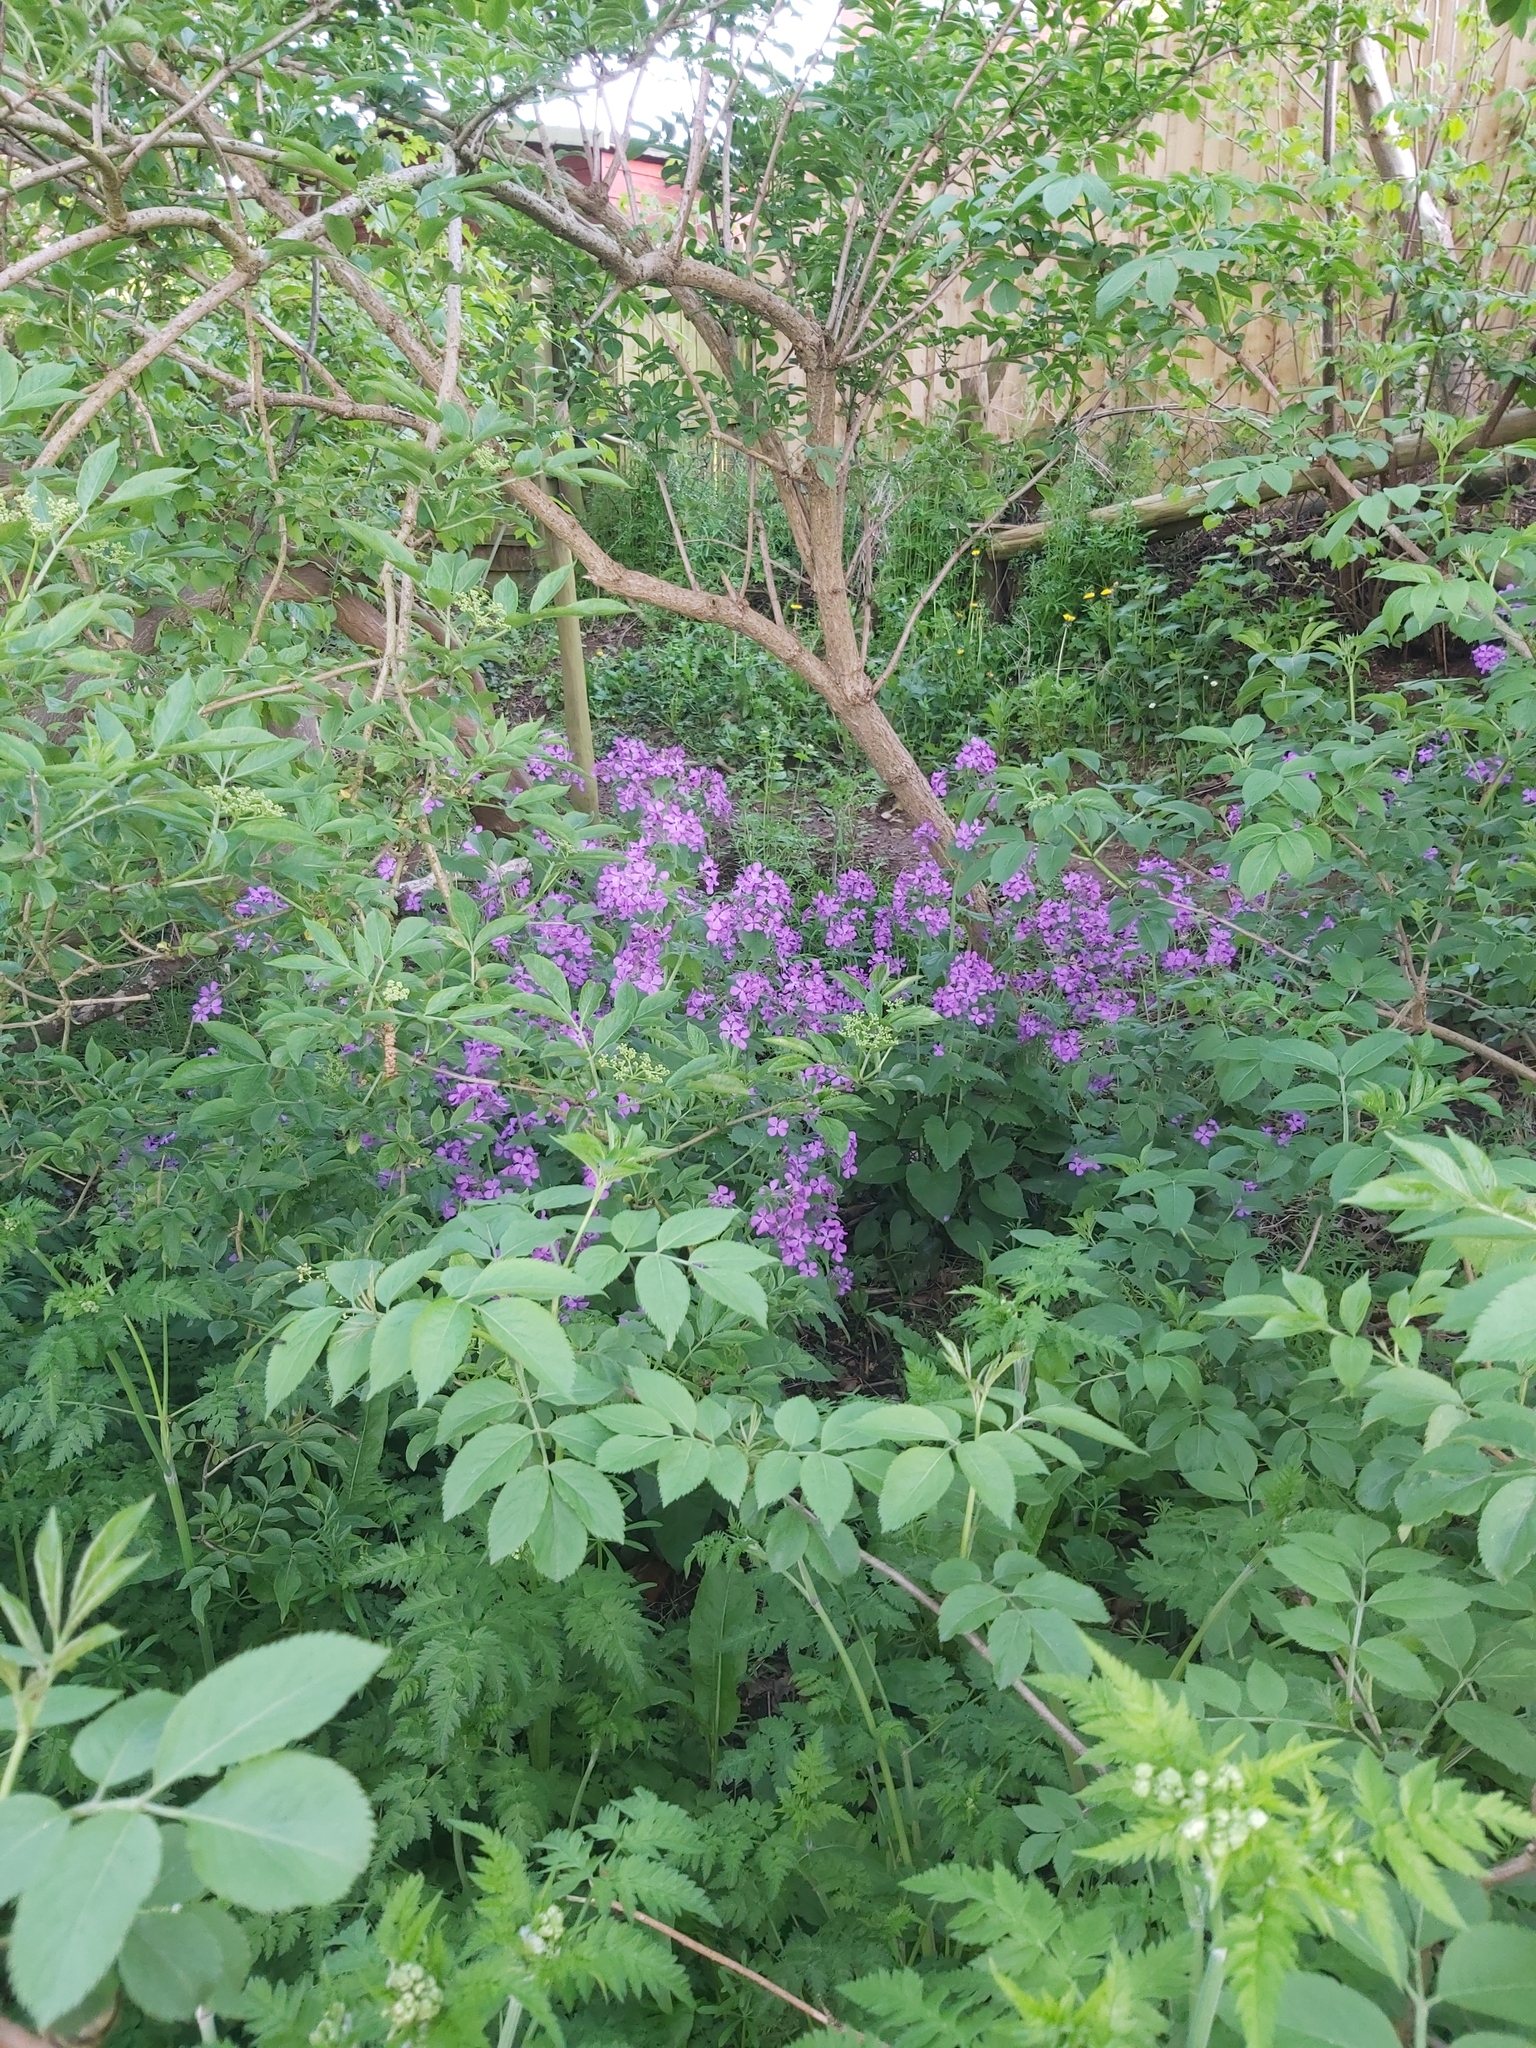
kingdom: Plantae
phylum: Tracheophyta
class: Magnoliopsida
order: Brassicales
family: Brassicaceae
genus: Lunaria
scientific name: Lunaria annua
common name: Honesty
